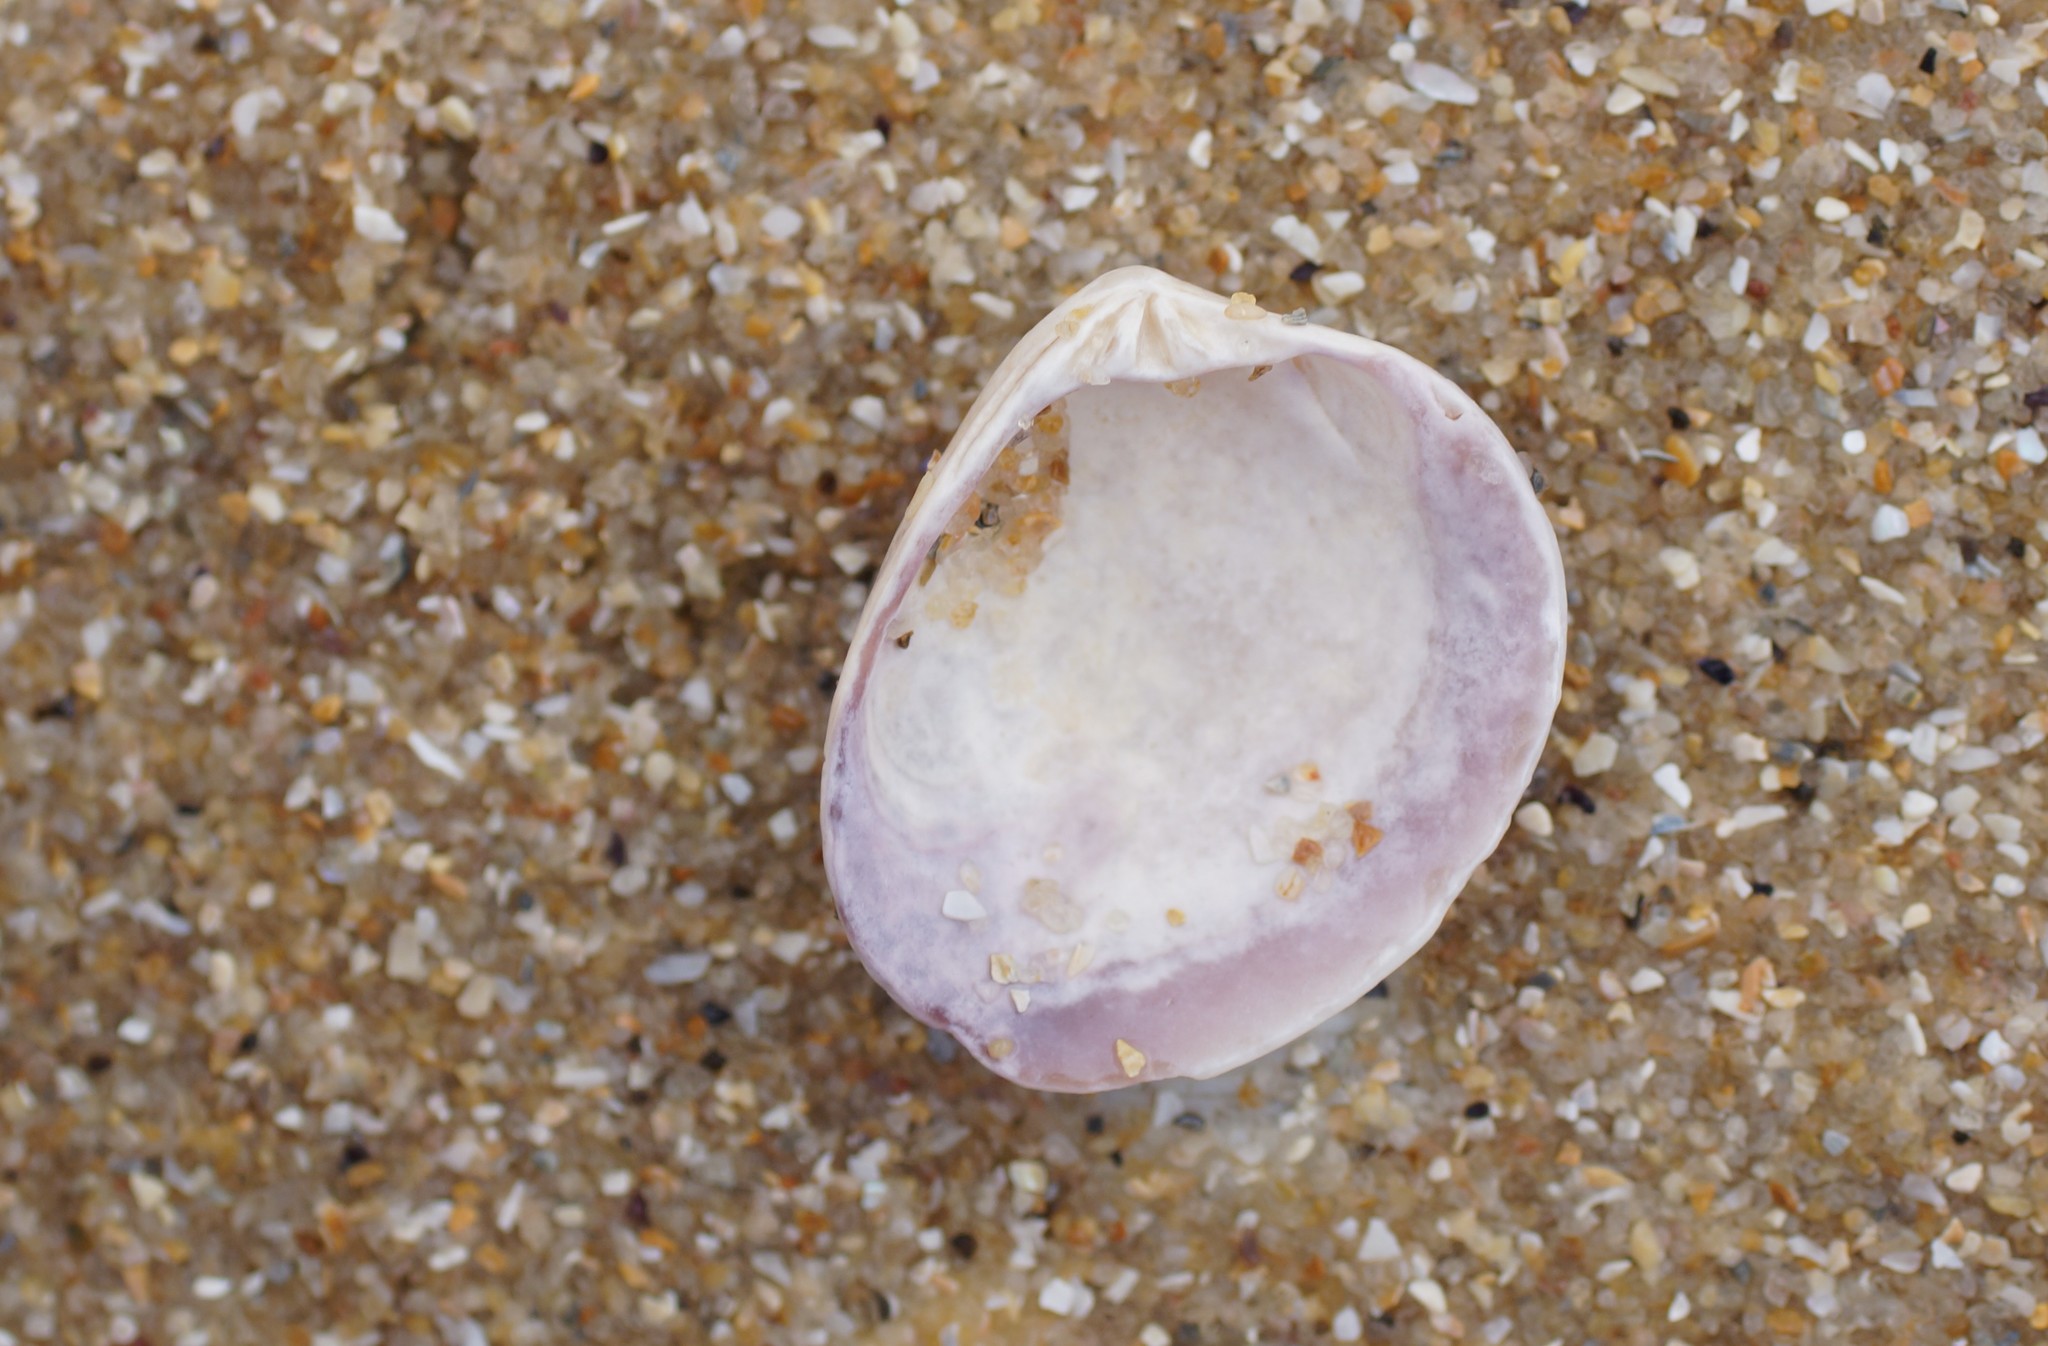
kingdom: Animalia
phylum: Mollusca
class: Bivalvia
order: Venerida
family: Veneridae
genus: Katelysia
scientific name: Katelysia scalarina
